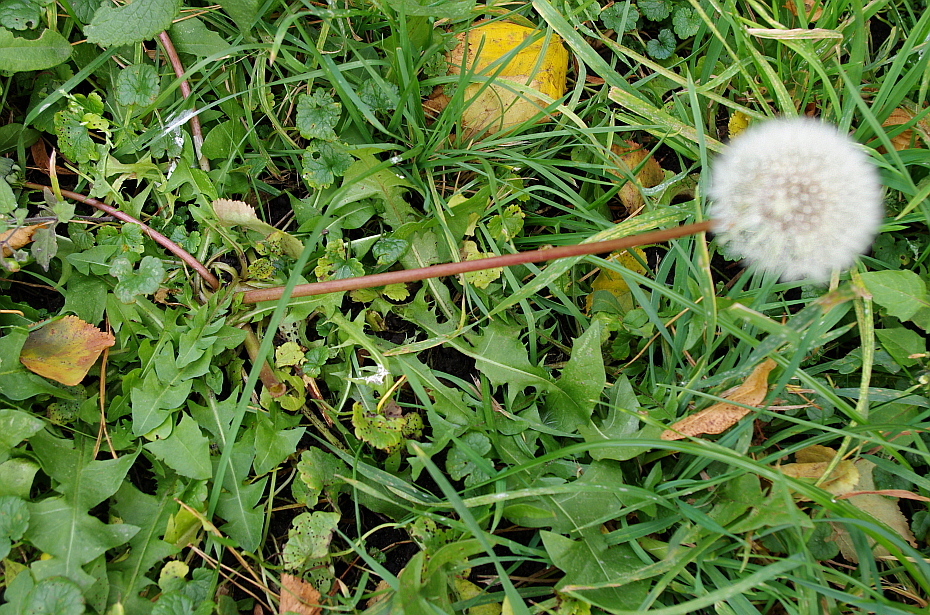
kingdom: Plantae
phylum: Tracheophyta
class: Magnoliopsida
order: Asterales
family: Asteraceae
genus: Taraxacum
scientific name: Taraxacum officinale
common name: Common dandelion
